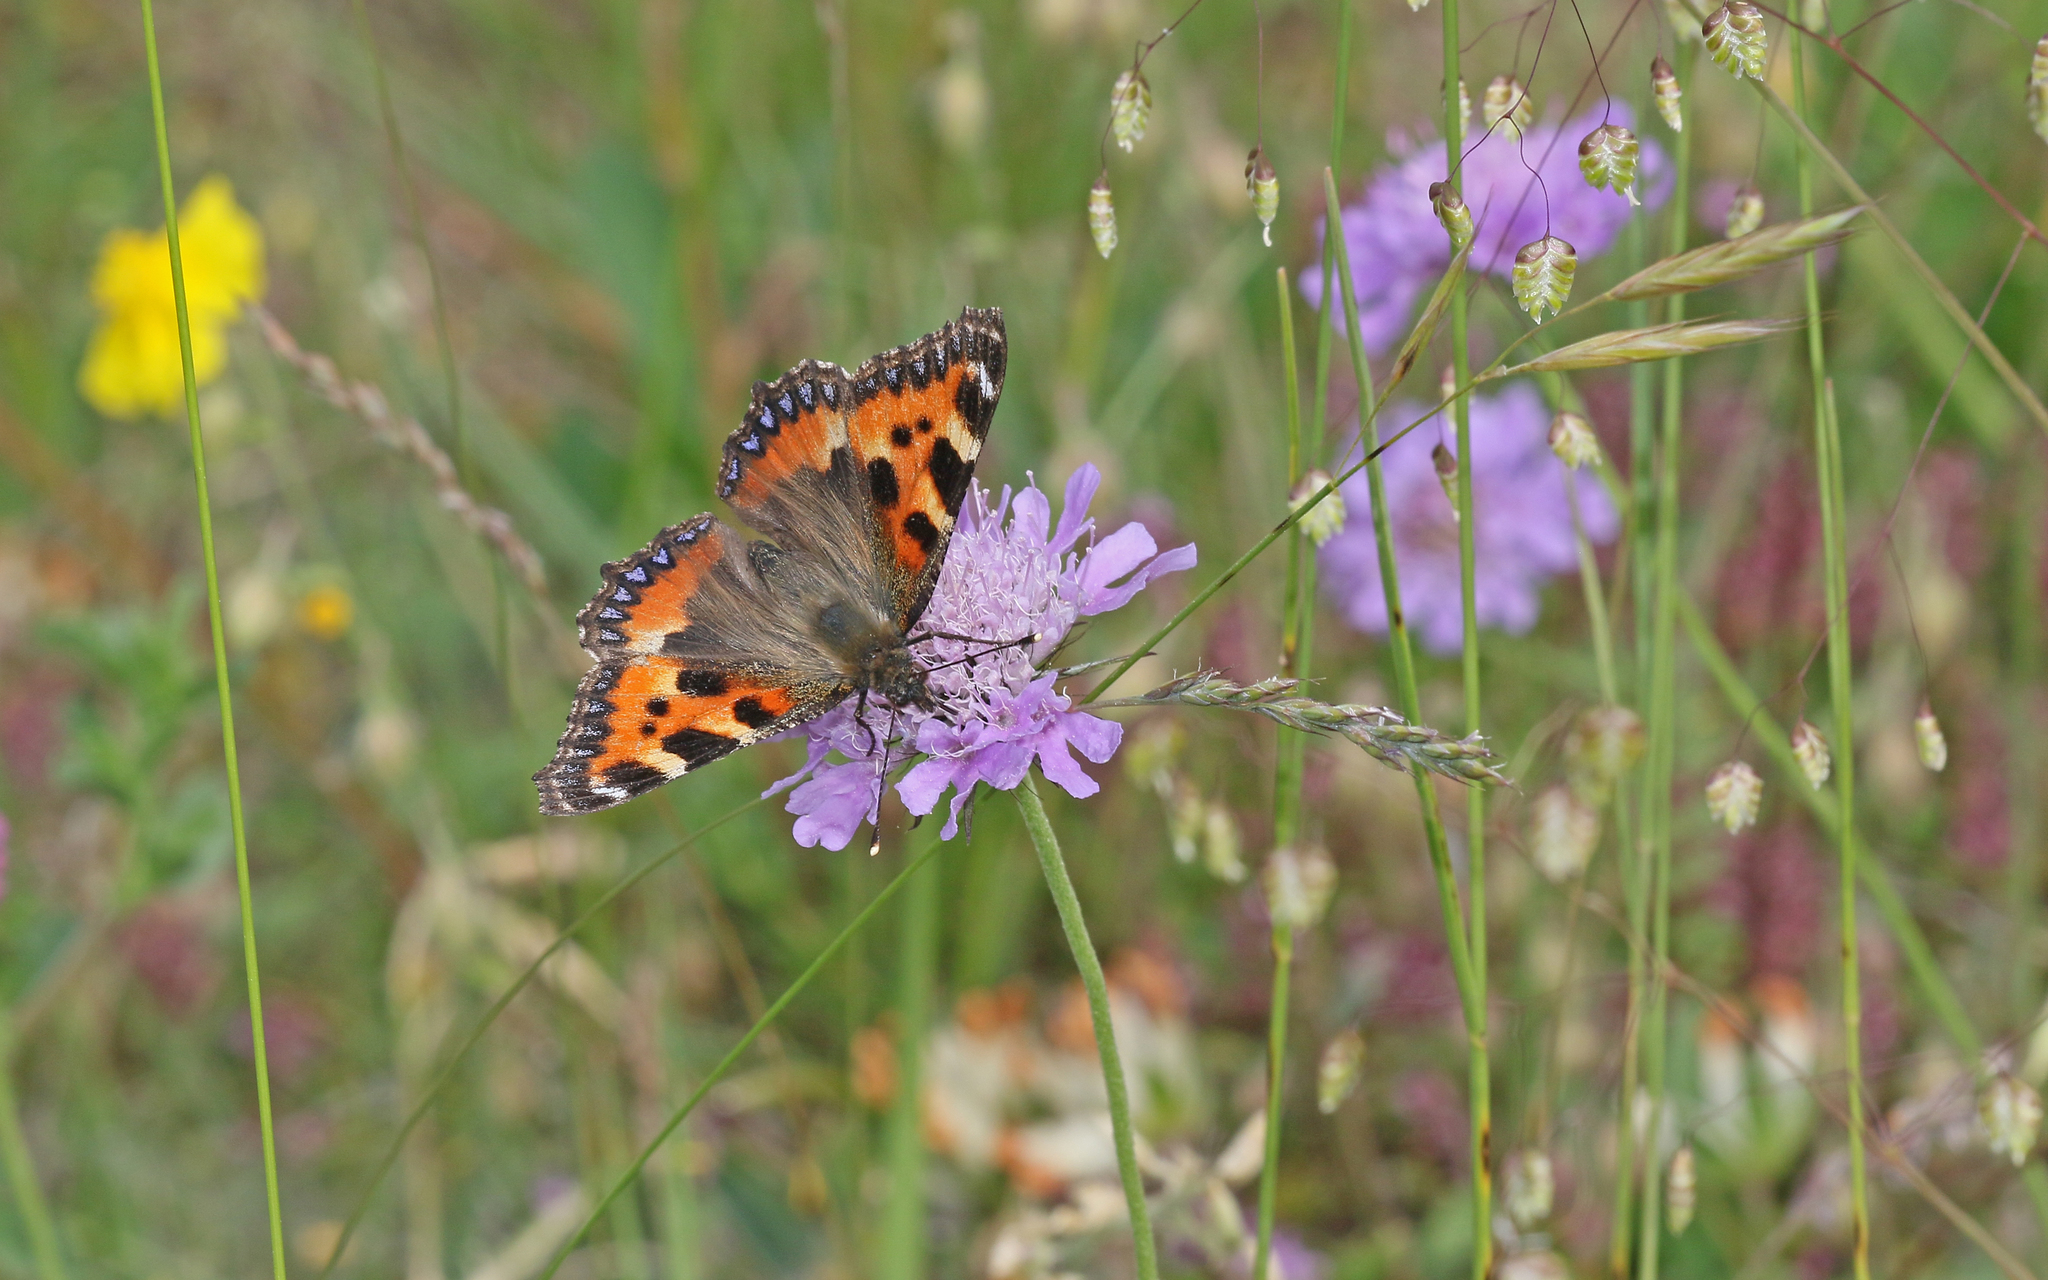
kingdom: Animalia
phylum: Arthropoda
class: Insecta
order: Lepidoptera
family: Nymphalidae
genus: Aglais
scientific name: Aglais urticae
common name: Small tortoiseshell
